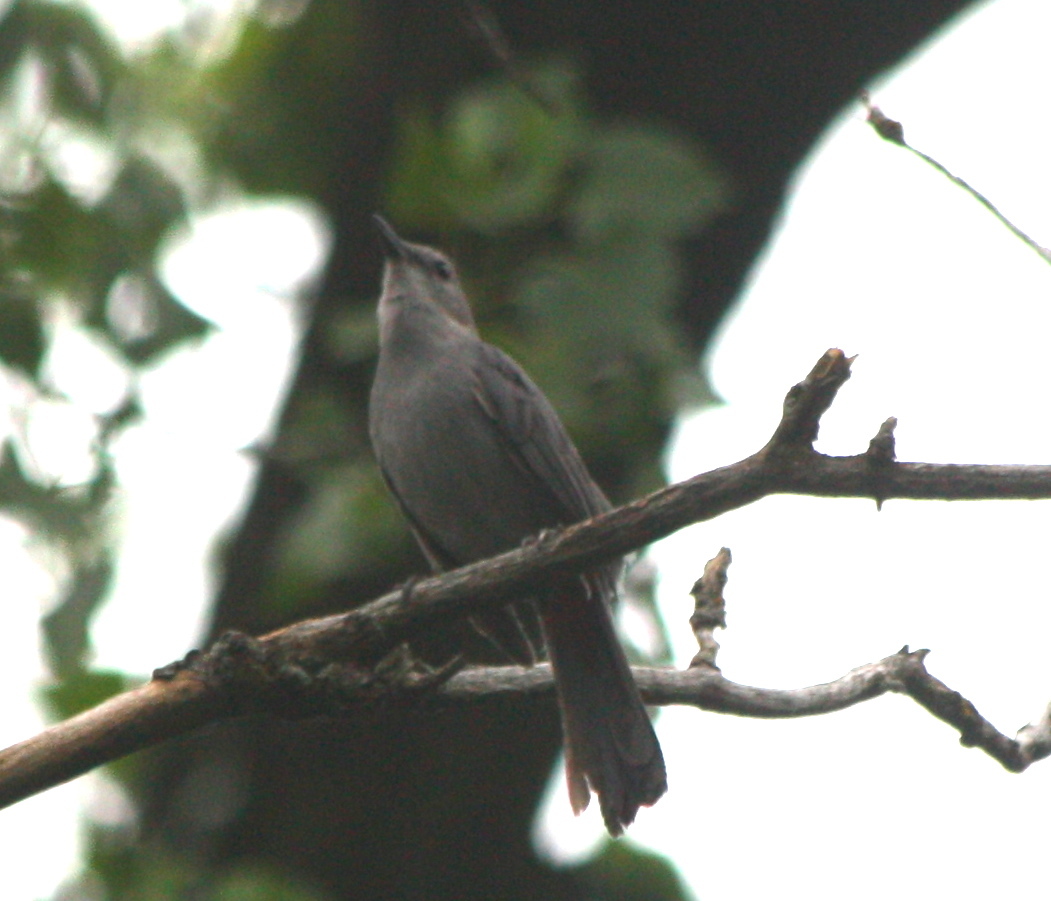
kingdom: Animalia
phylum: Chordata
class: Aves
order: Passeriformes
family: Mimidae
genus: Dumetella
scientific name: Dumetella carolinensis
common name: Gray catbird
